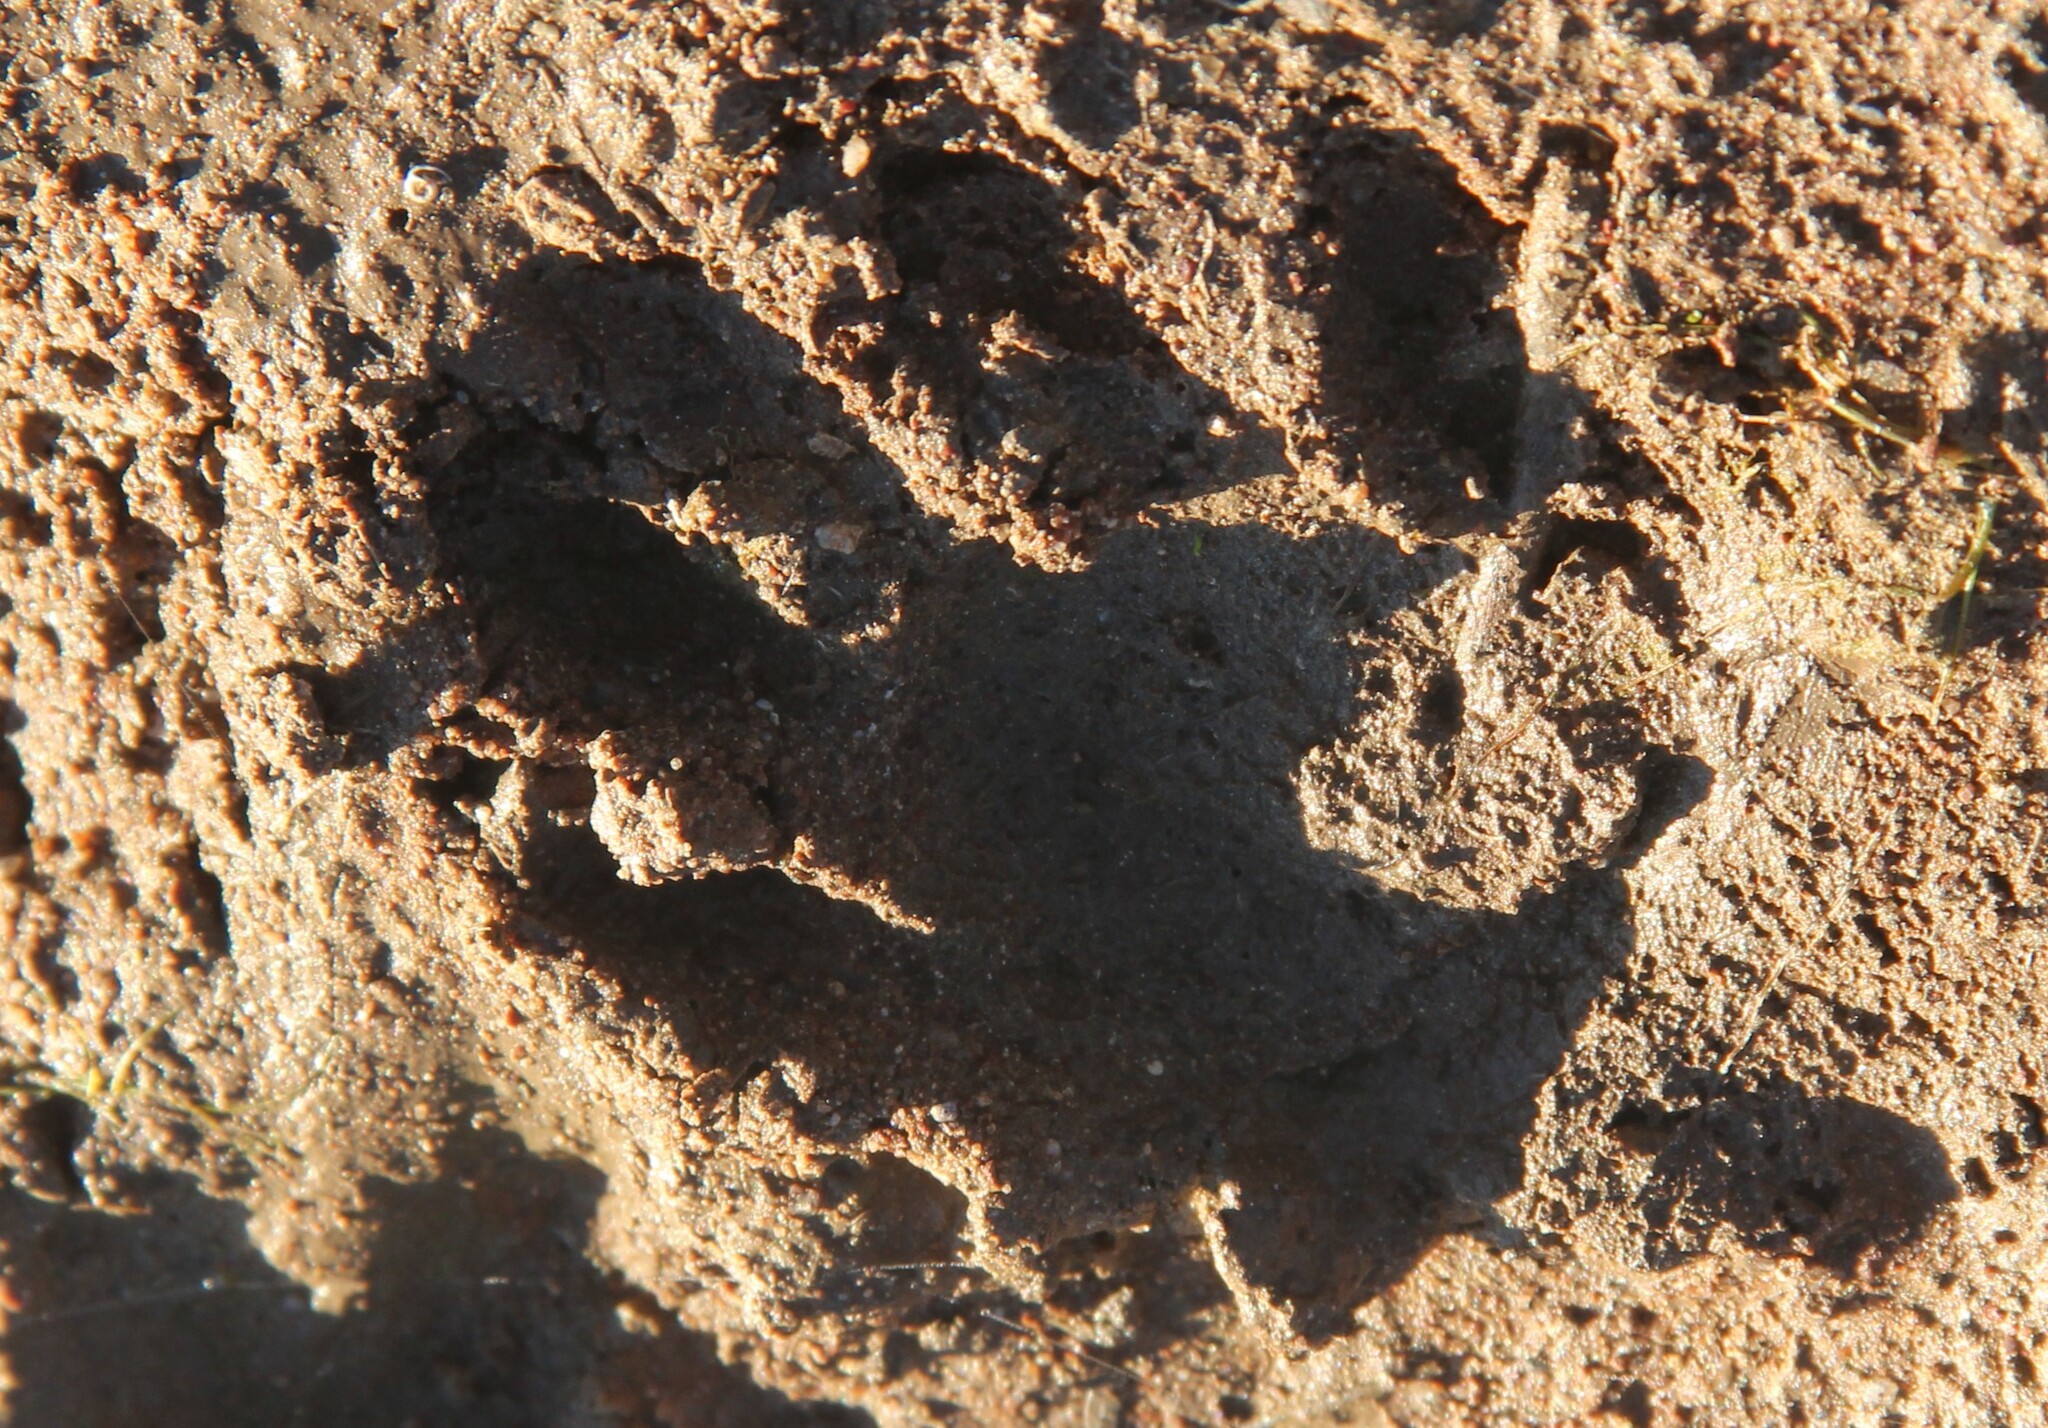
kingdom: Animalia
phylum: Chordata
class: Mammalia
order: Carnivora
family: Procyonidae
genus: Procyon
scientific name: Procyon lotor
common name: Raccoon
